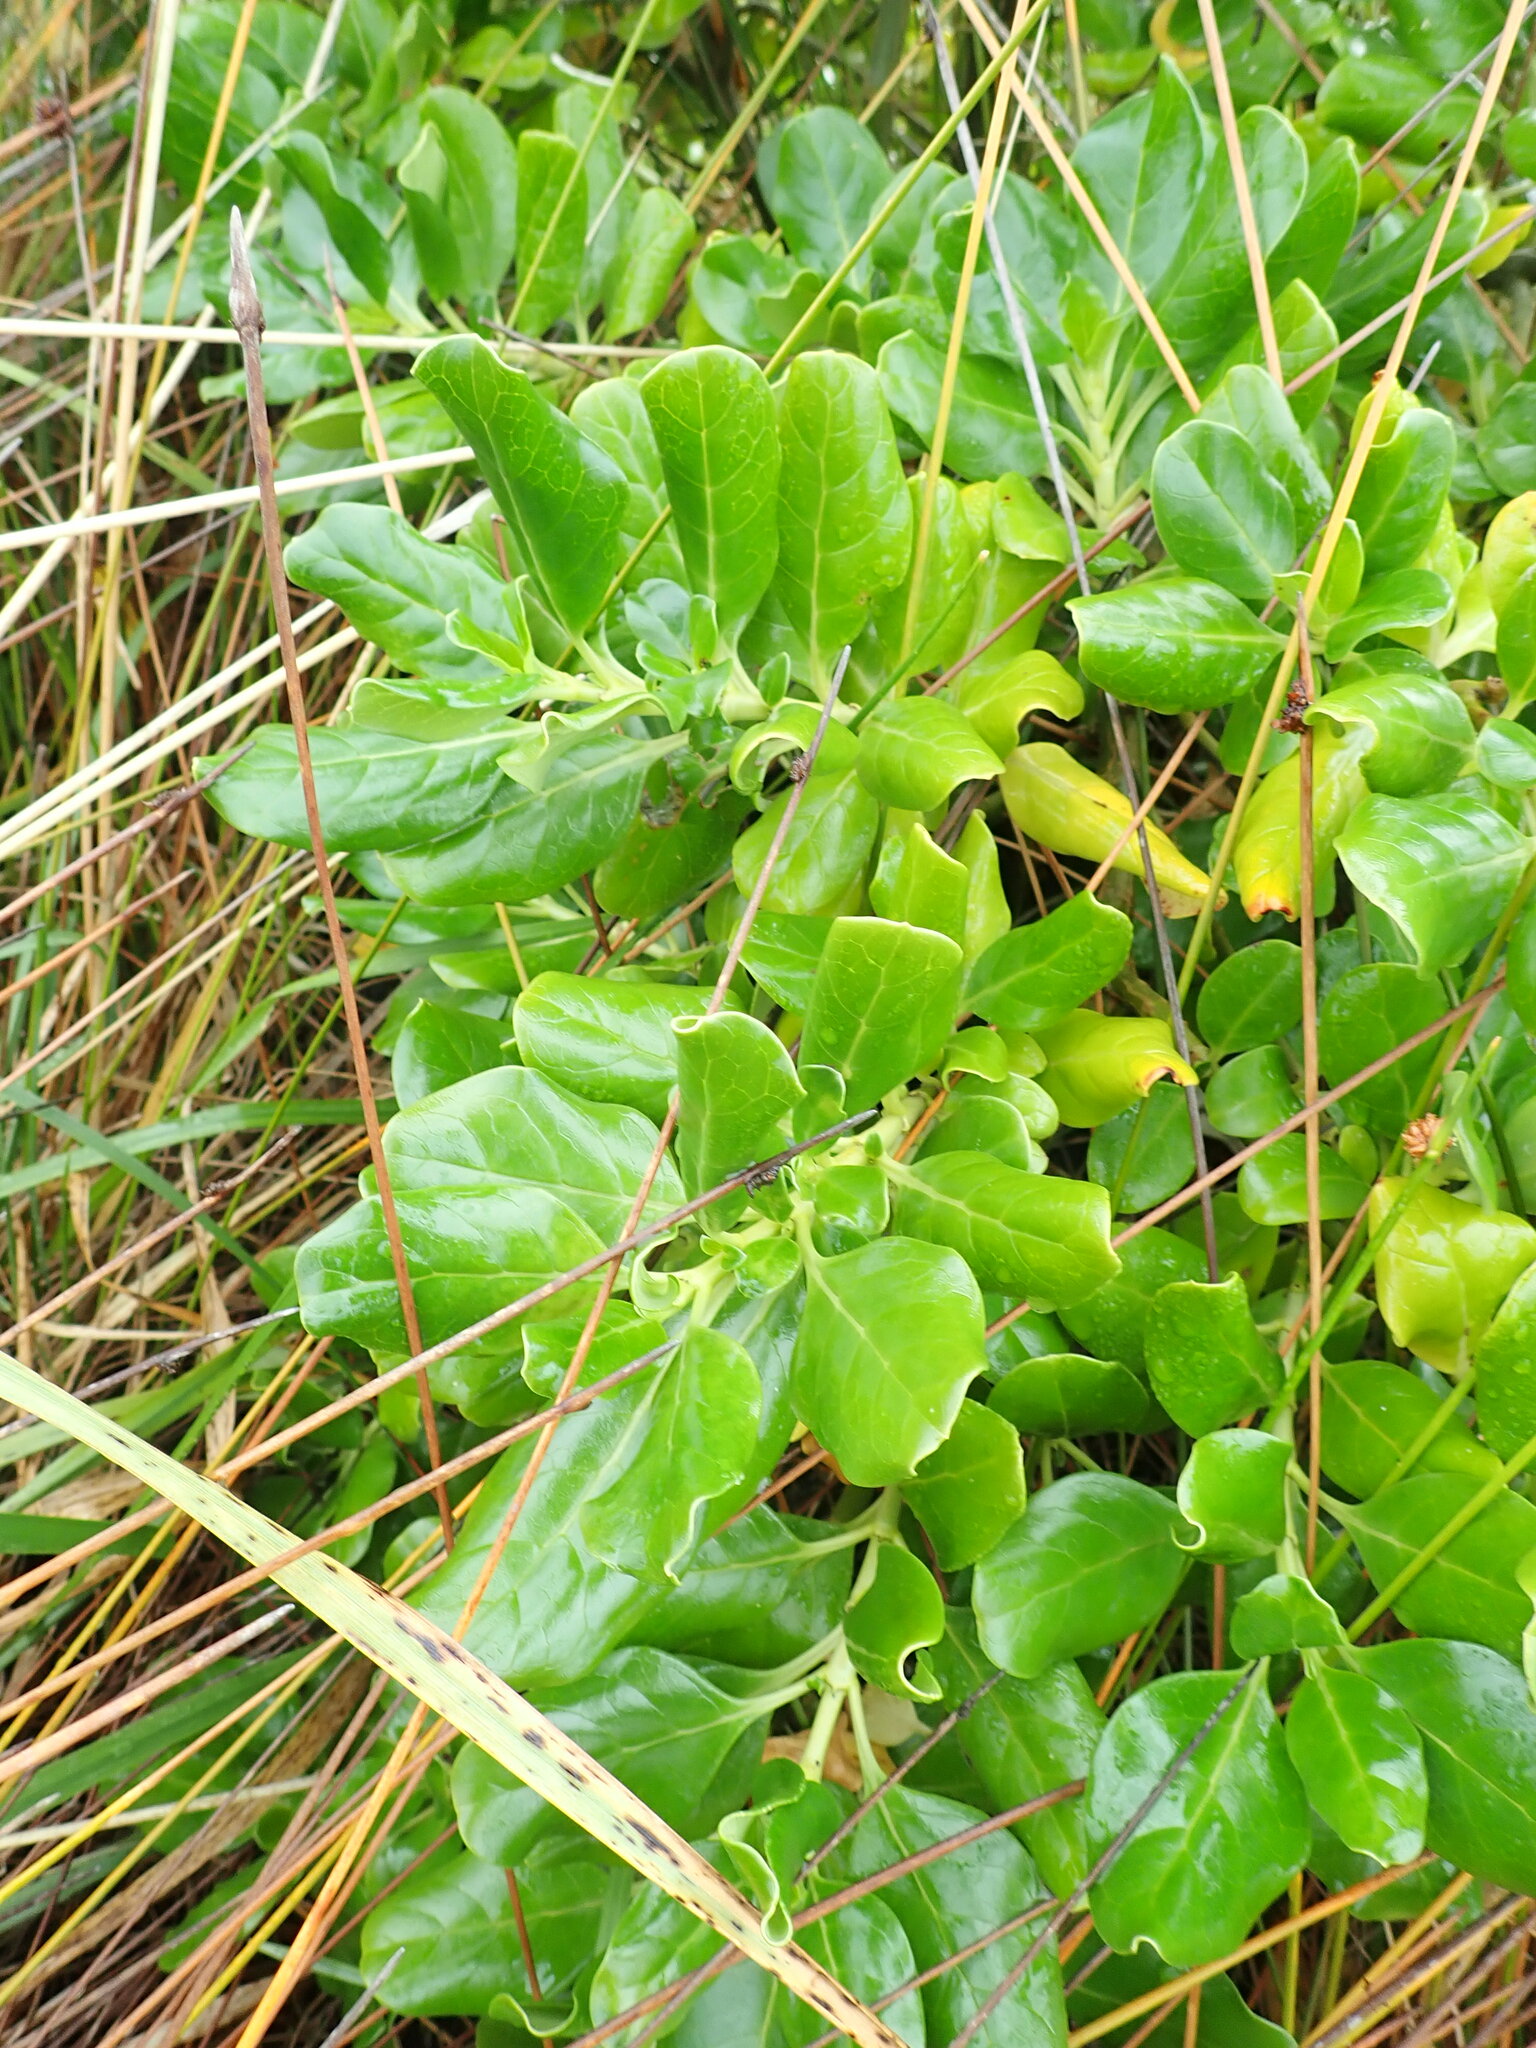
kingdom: Plantae
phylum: Tracheophyta
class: Magnoliopsida
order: Gentianales
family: Rubiaceae
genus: Coprosma
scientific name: Coprosma repens
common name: Tree bedstraw
